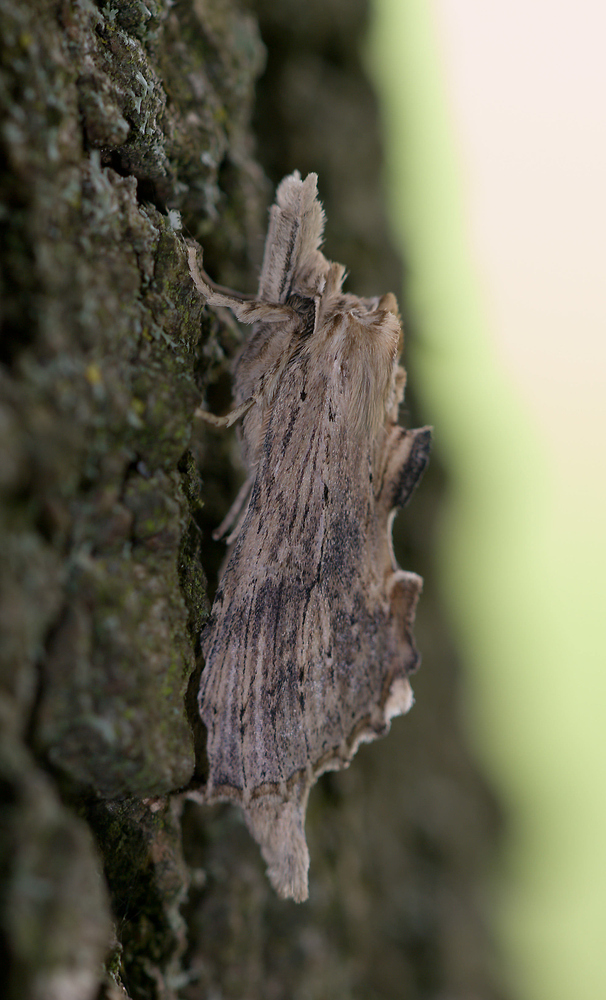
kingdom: Animalia
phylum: Arthropoda
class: Insecta
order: Lepidoptera
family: Notodontidae
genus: Pterostoma
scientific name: Pterostoma palpina
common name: Pale prominent
